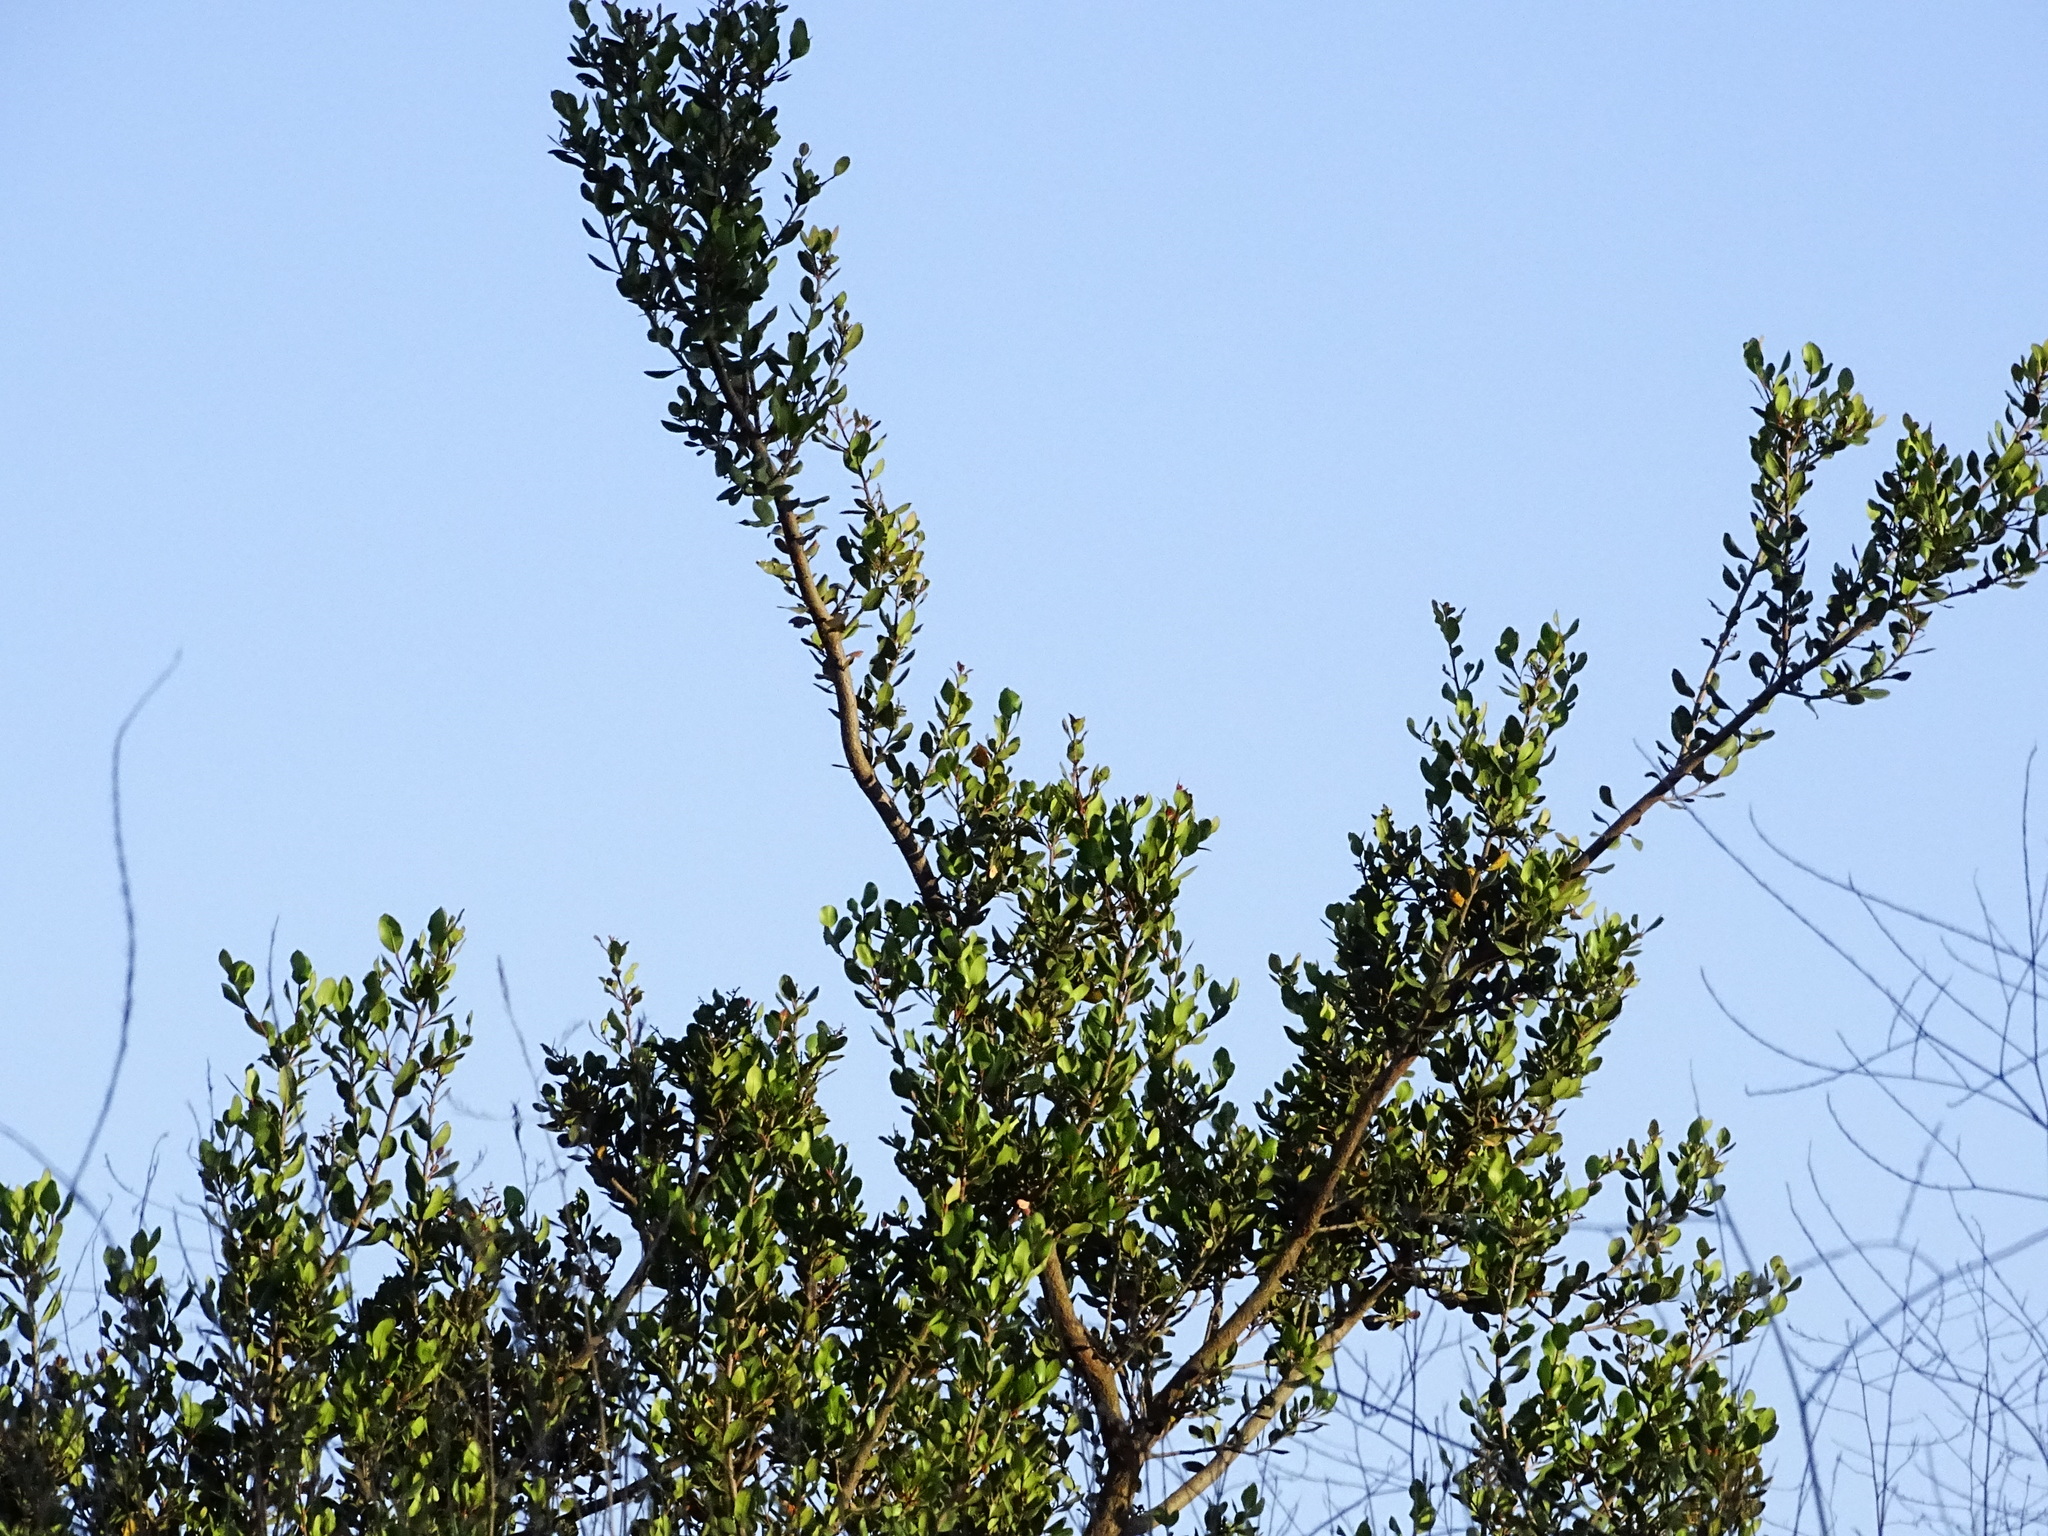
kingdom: Plantae
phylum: Tracheophyta
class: Magnoliopsida
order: Sapindales
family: Anacardiaceae
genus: Rhus
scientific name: Rhus integrifolia
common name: Lemonade sumac
